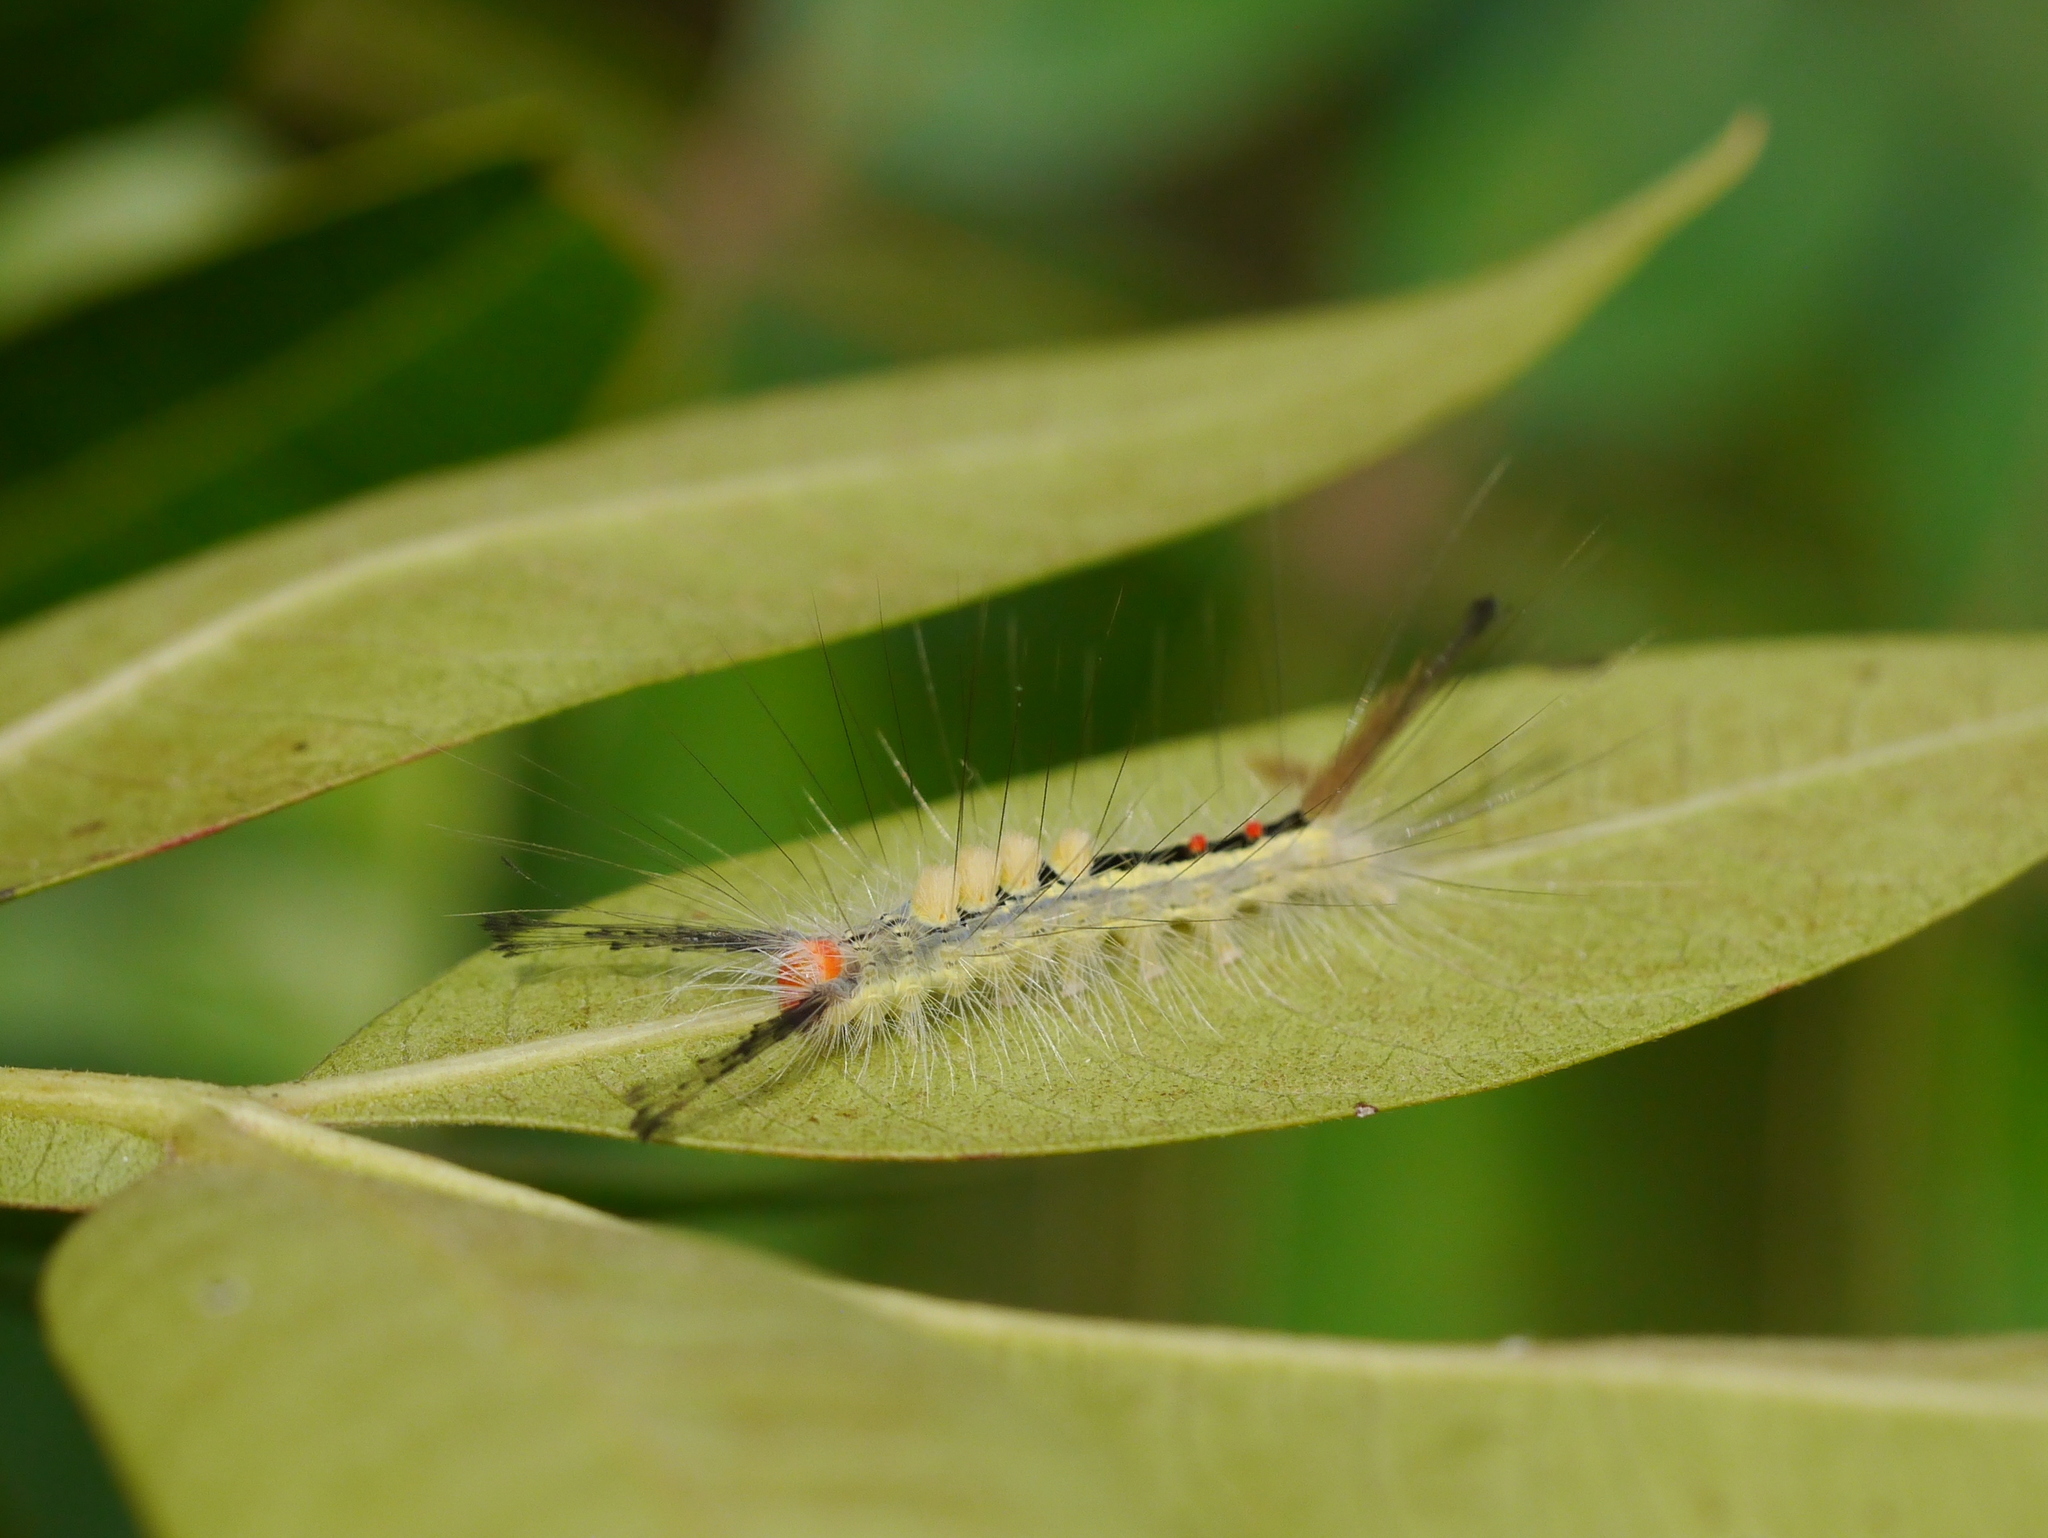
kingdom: Animalia
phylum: Arthropoda
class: Insecta
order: Lepidoptera
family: Erebidae
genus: Orgyia
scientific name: Orgyia leucostigma
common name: White-marked tussock moth
